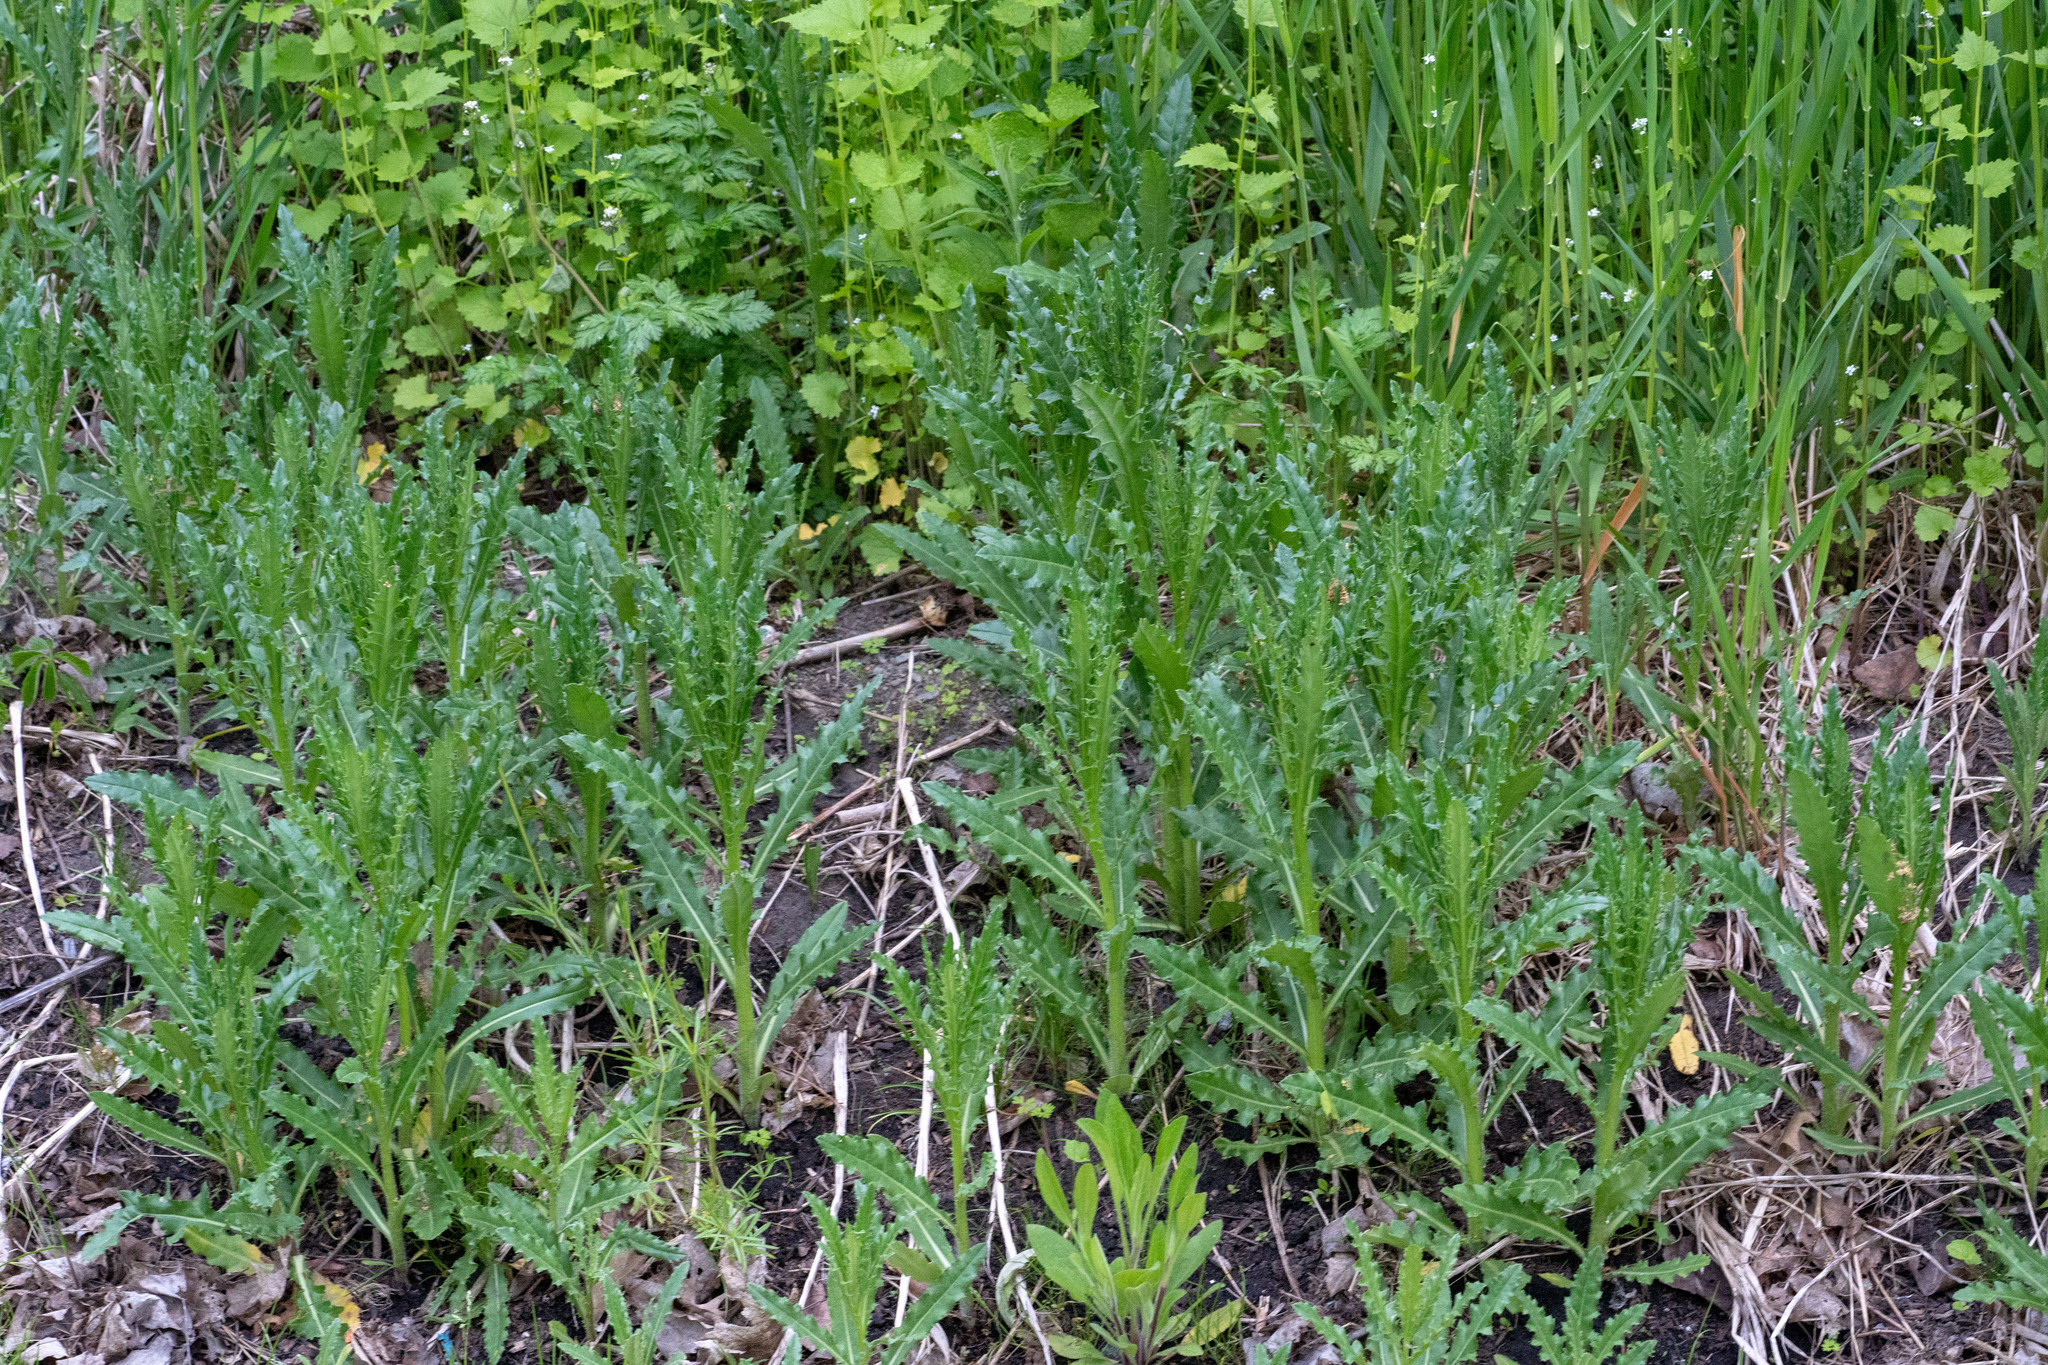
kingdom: Plantae
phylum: Tracheophyta
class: Magnoliopsida
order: Asterales
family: Asteraceae
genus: Cirsium
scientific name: Cirsium arvense
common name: Creeping thistle
